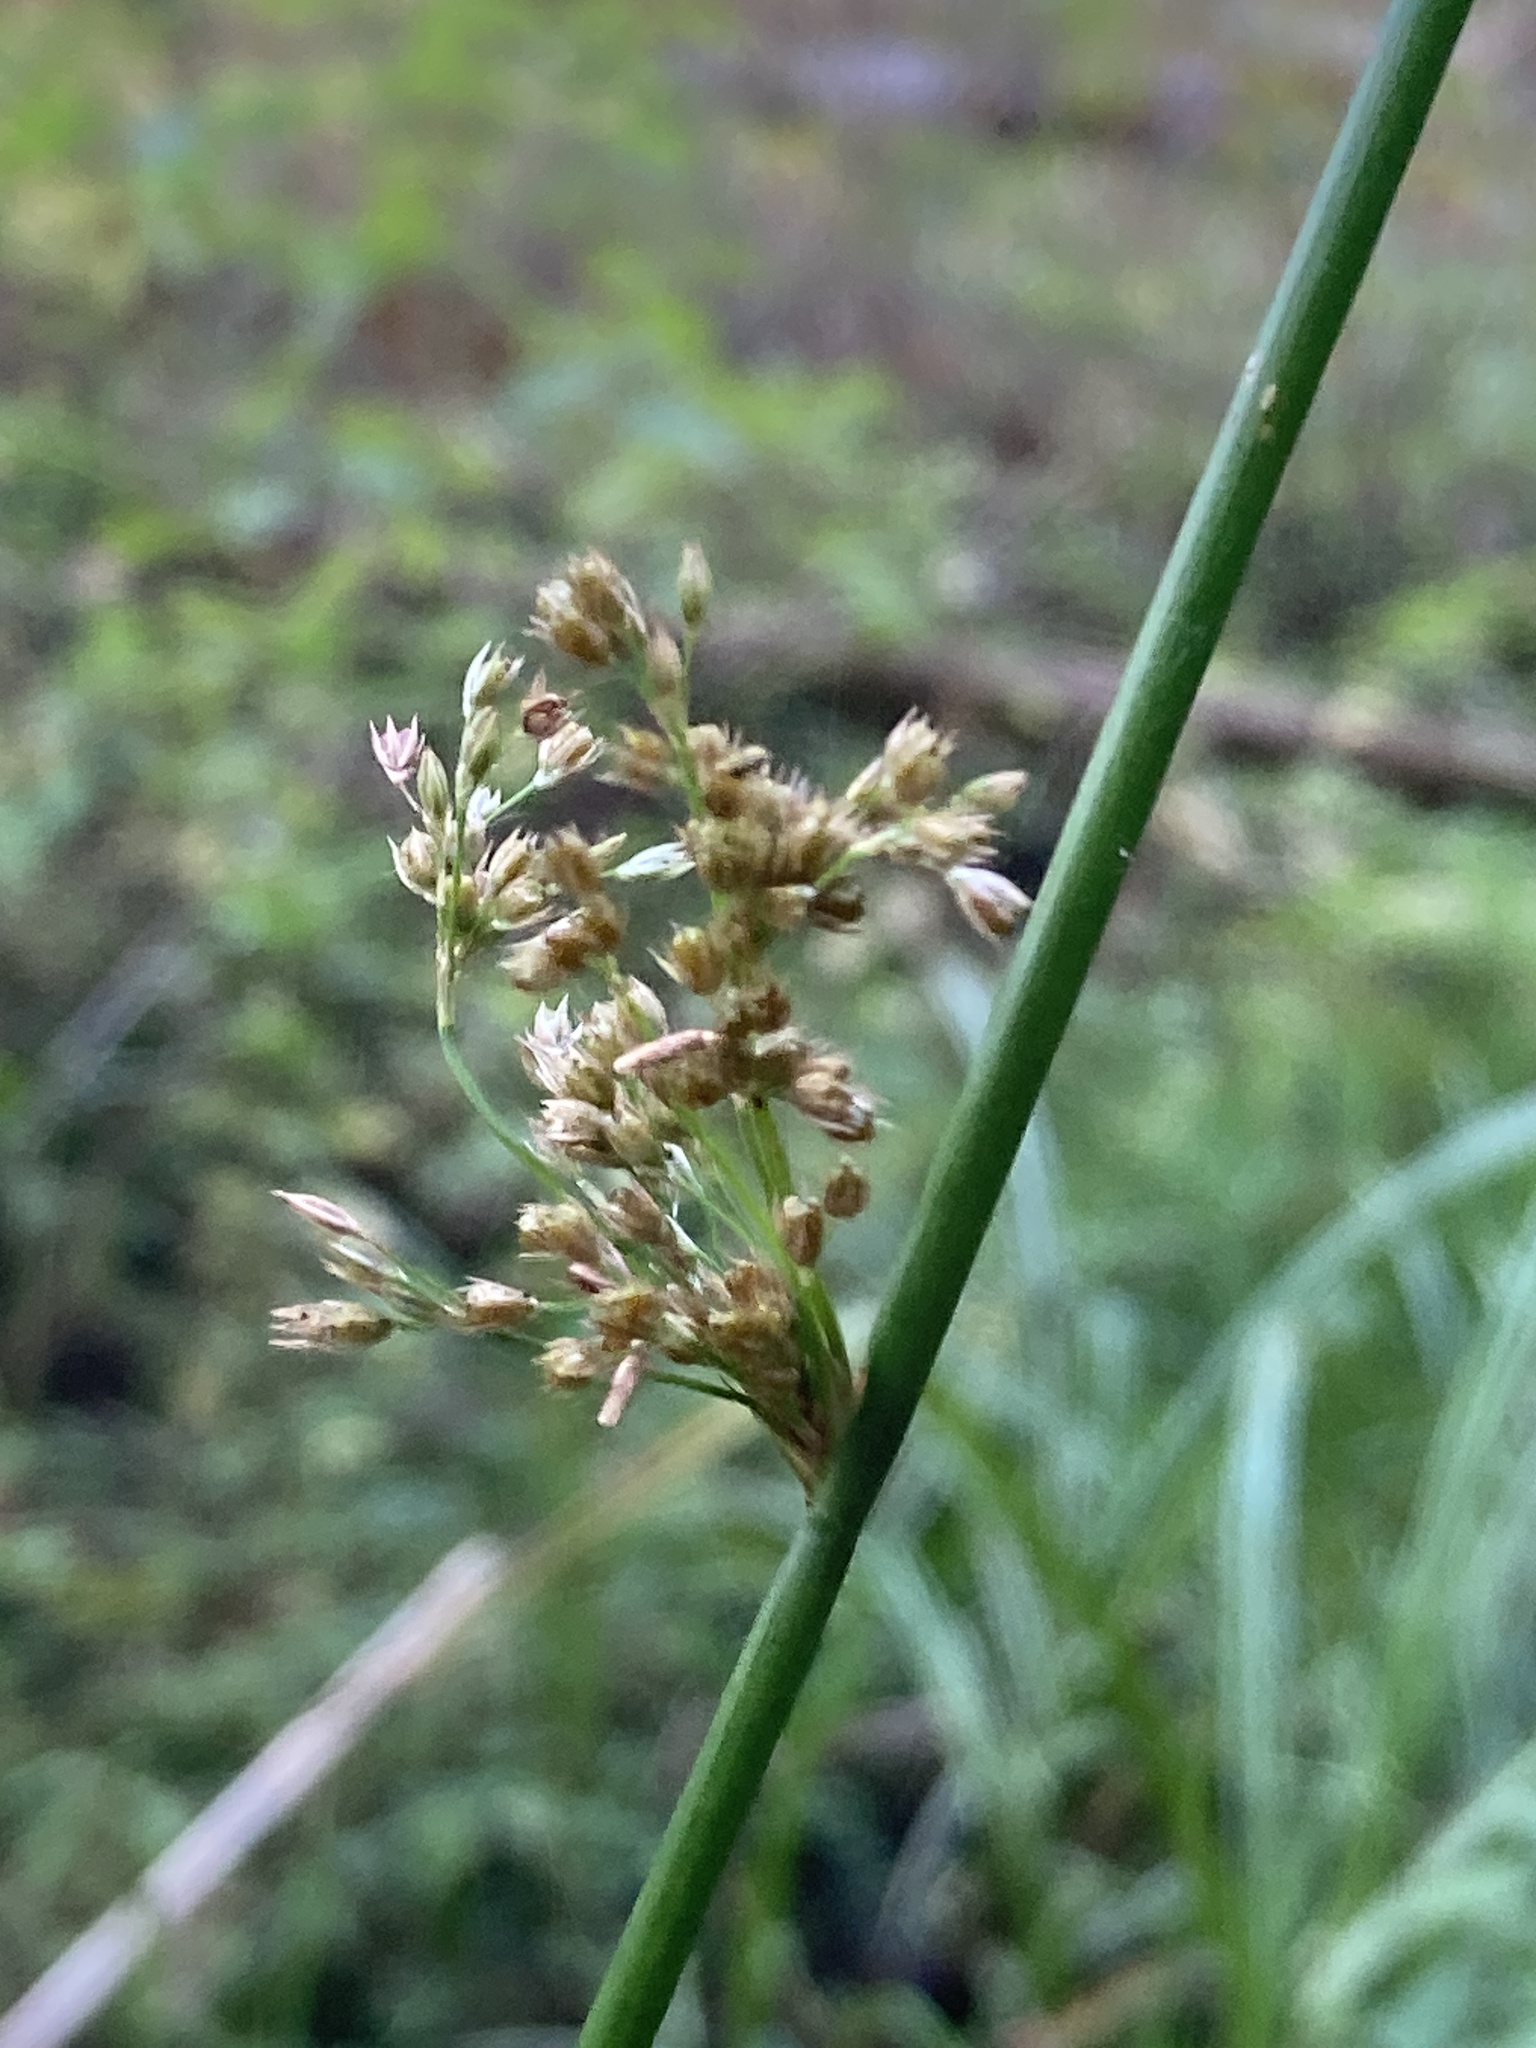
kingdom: Plantae
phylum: Tracheophyta
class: Liliopsida
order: Poales
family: Juncaceae
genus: Juncus
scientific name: Juncus effusus
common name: Soft rush
